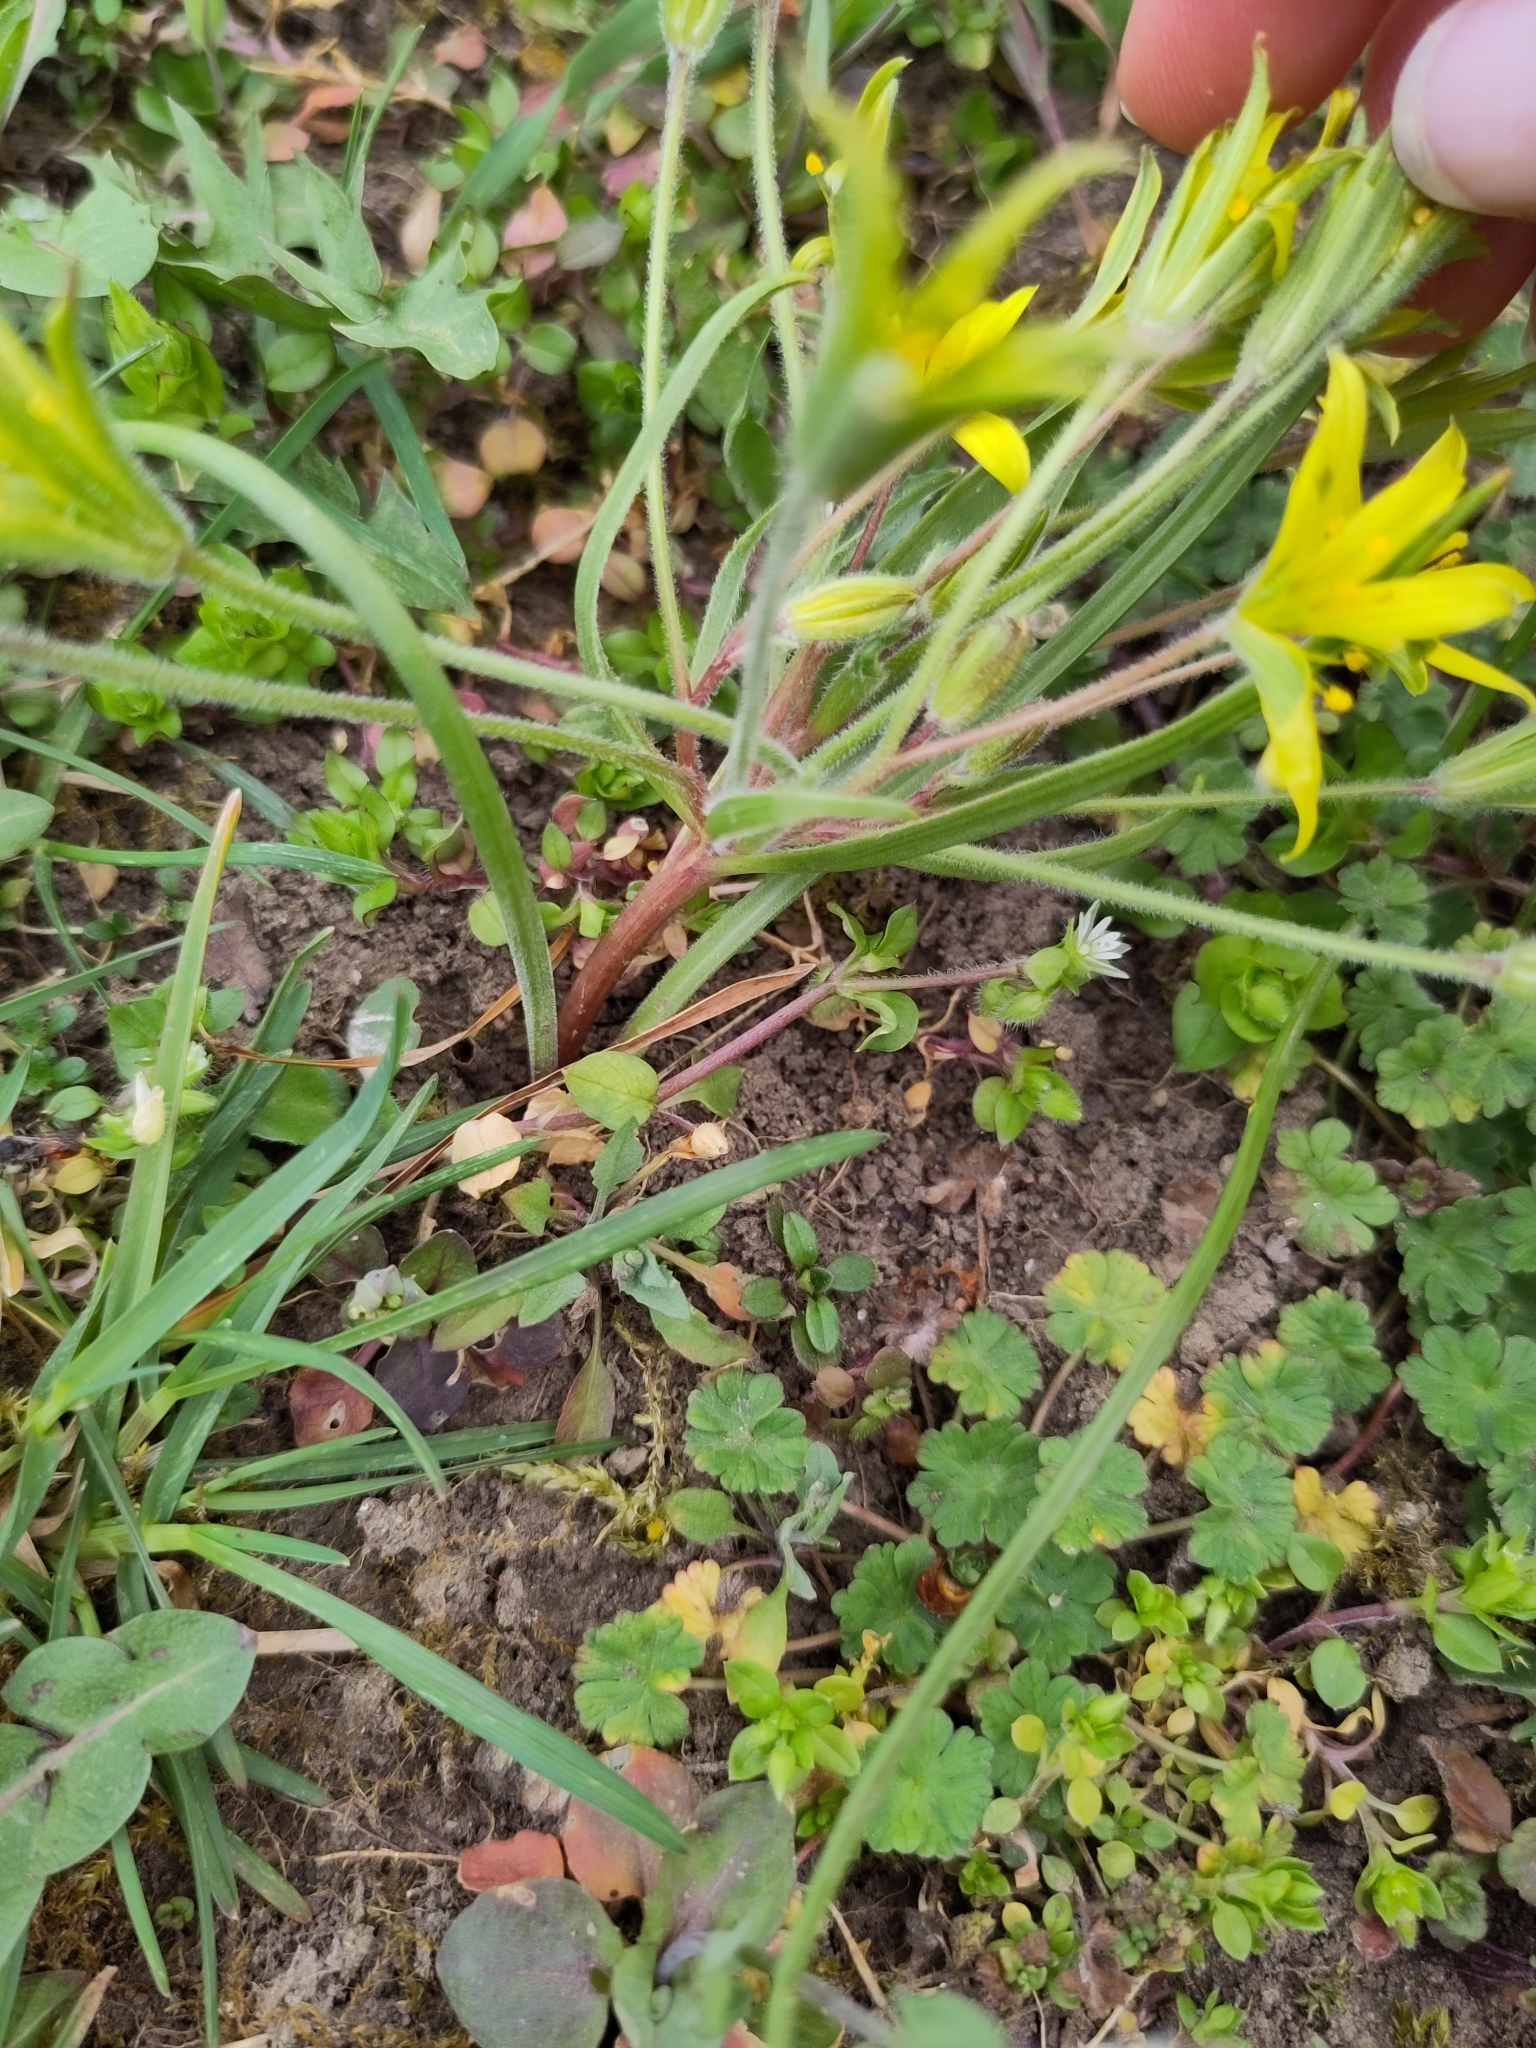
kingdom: Plantae
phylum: Tracheophyta
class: Liliopsida
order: Liliales
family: Liliaceae
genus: Gagea
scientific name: Gagea villosa
